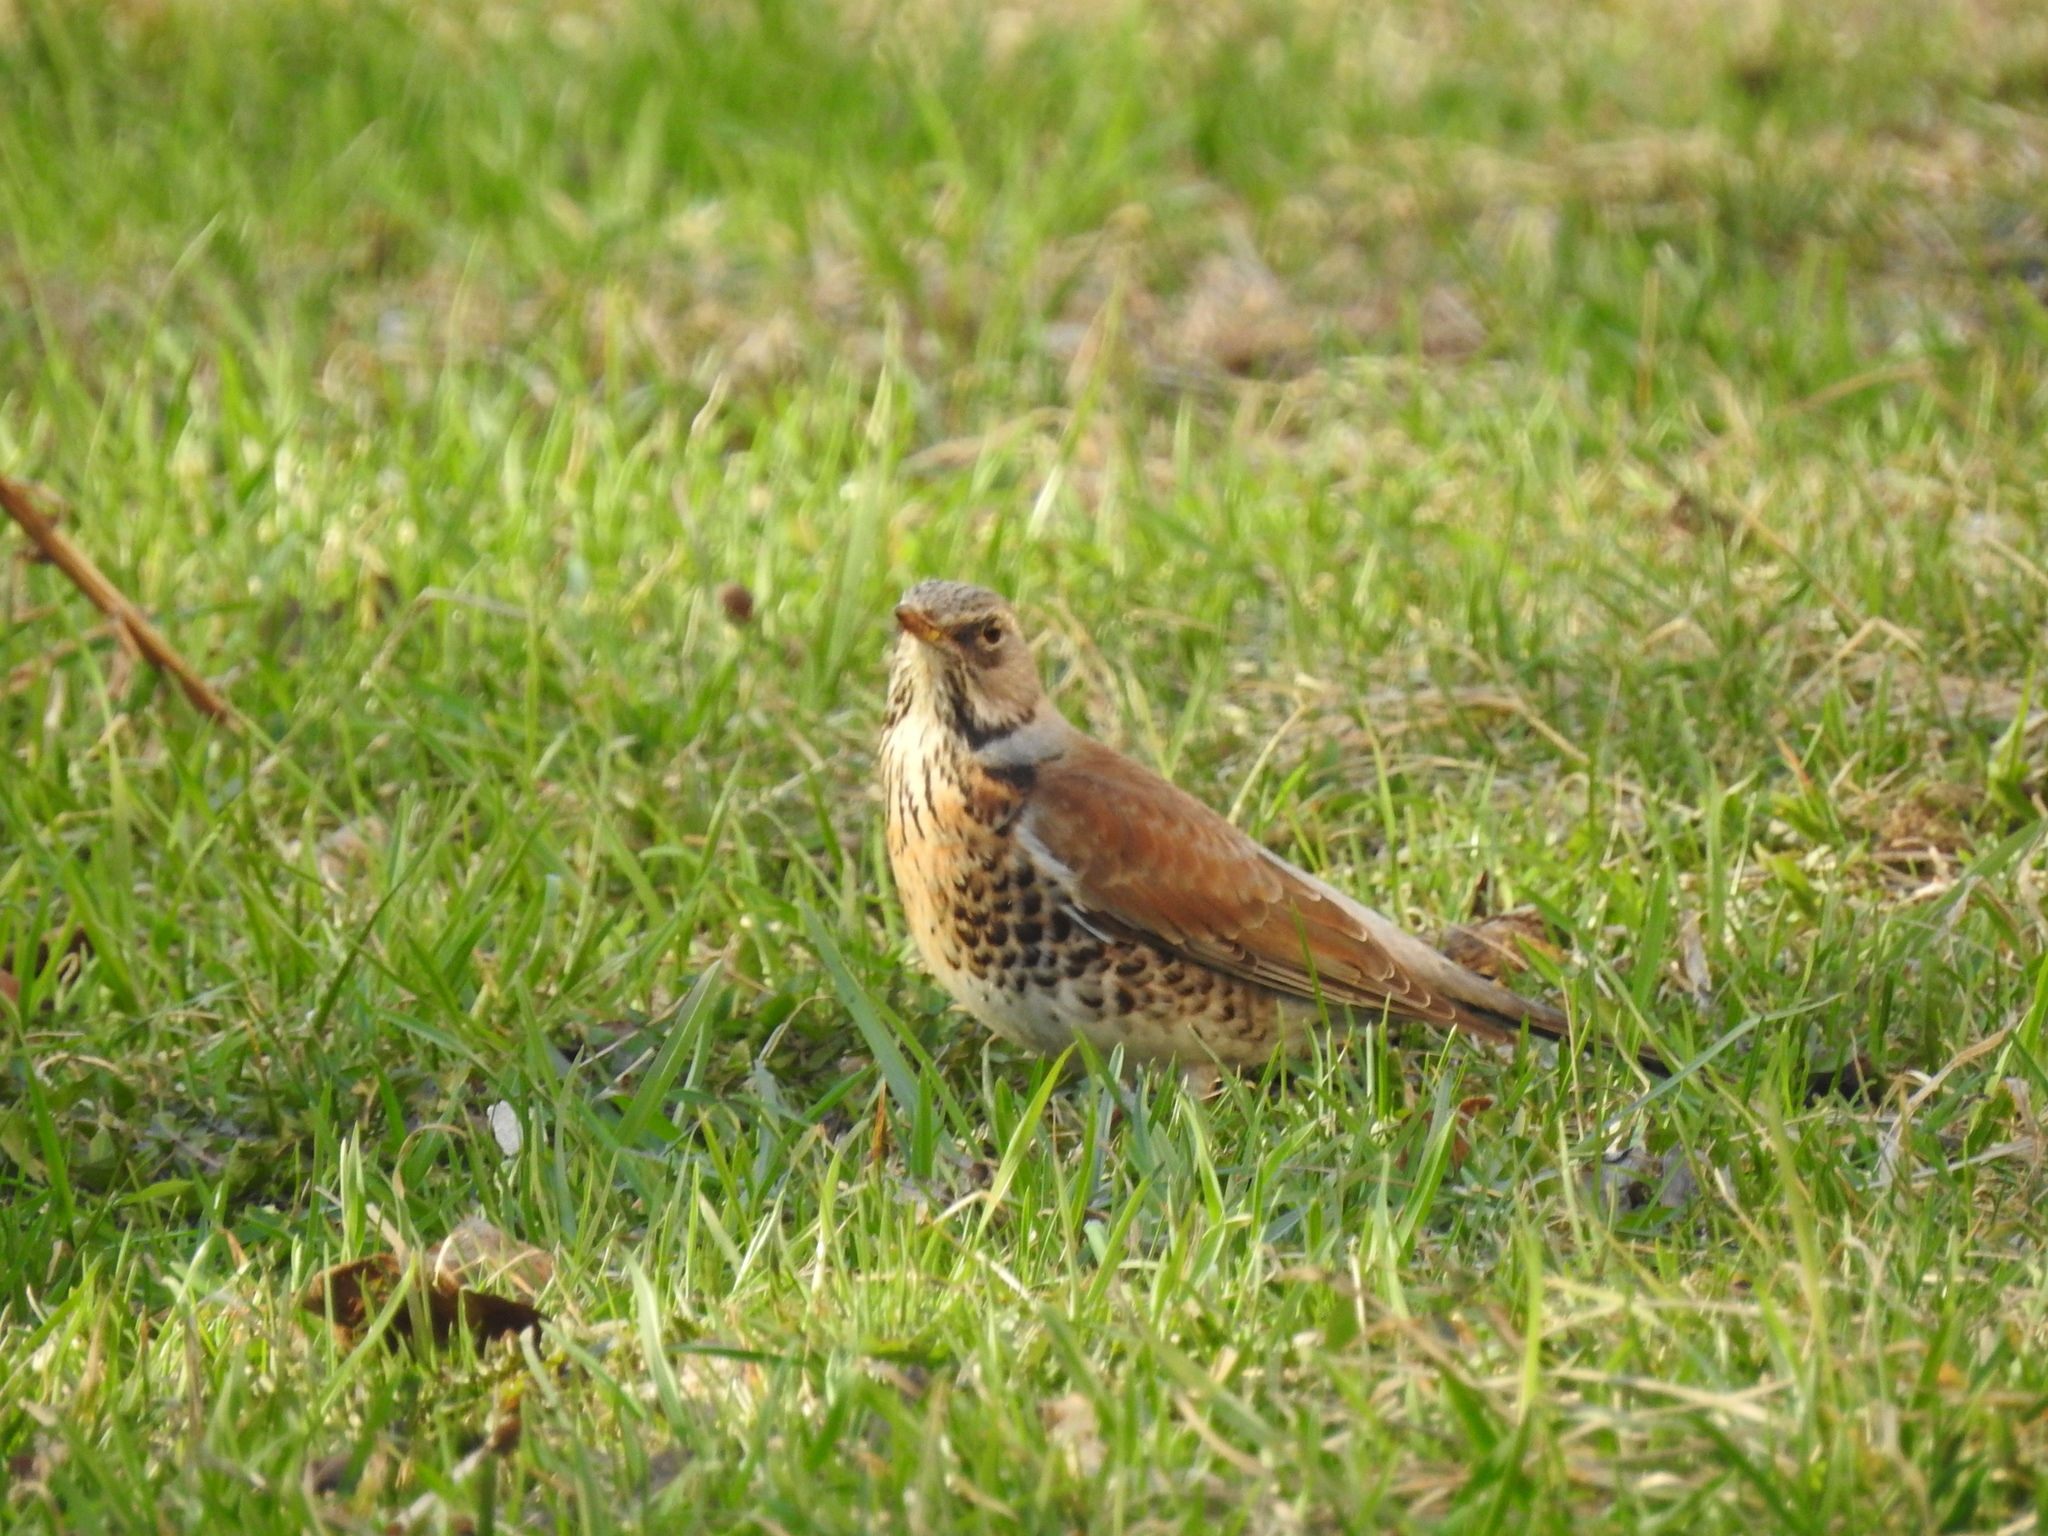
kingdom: Animalia
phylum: Chordata
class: Aves
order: Passeriformes
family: Turdidae
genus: Turdus
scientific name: Turdus pilaris
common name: Fieldfare
